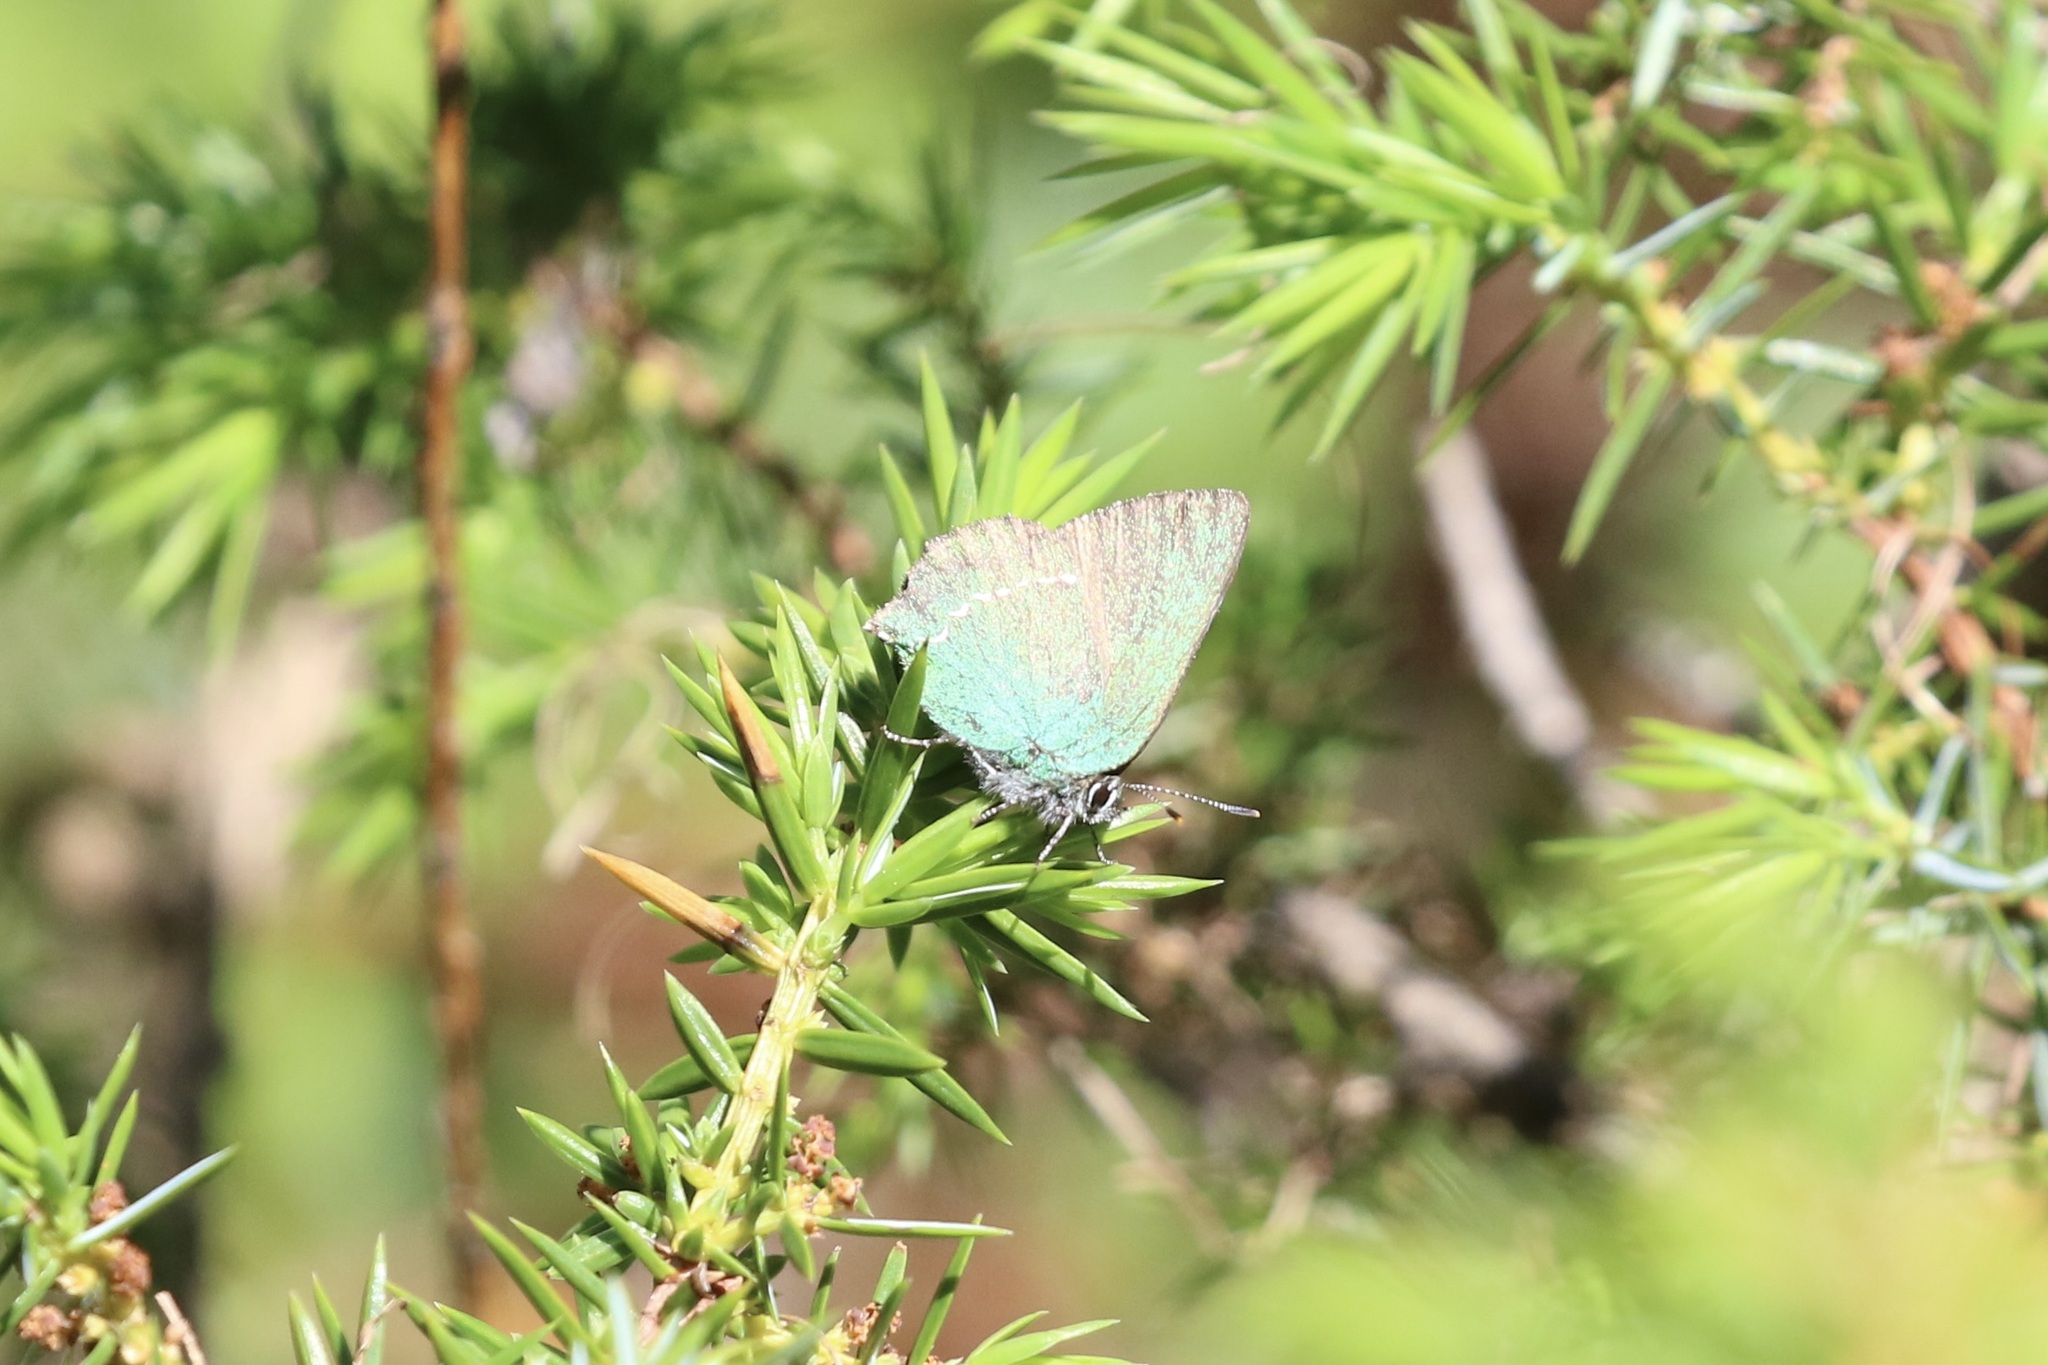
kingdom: Animalia
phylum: Arthropoda
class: Insecta
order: Lepidoptera
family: Lycaenidae
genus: Callophrys
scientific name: Callophrys rubi
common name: Green hairstreak
